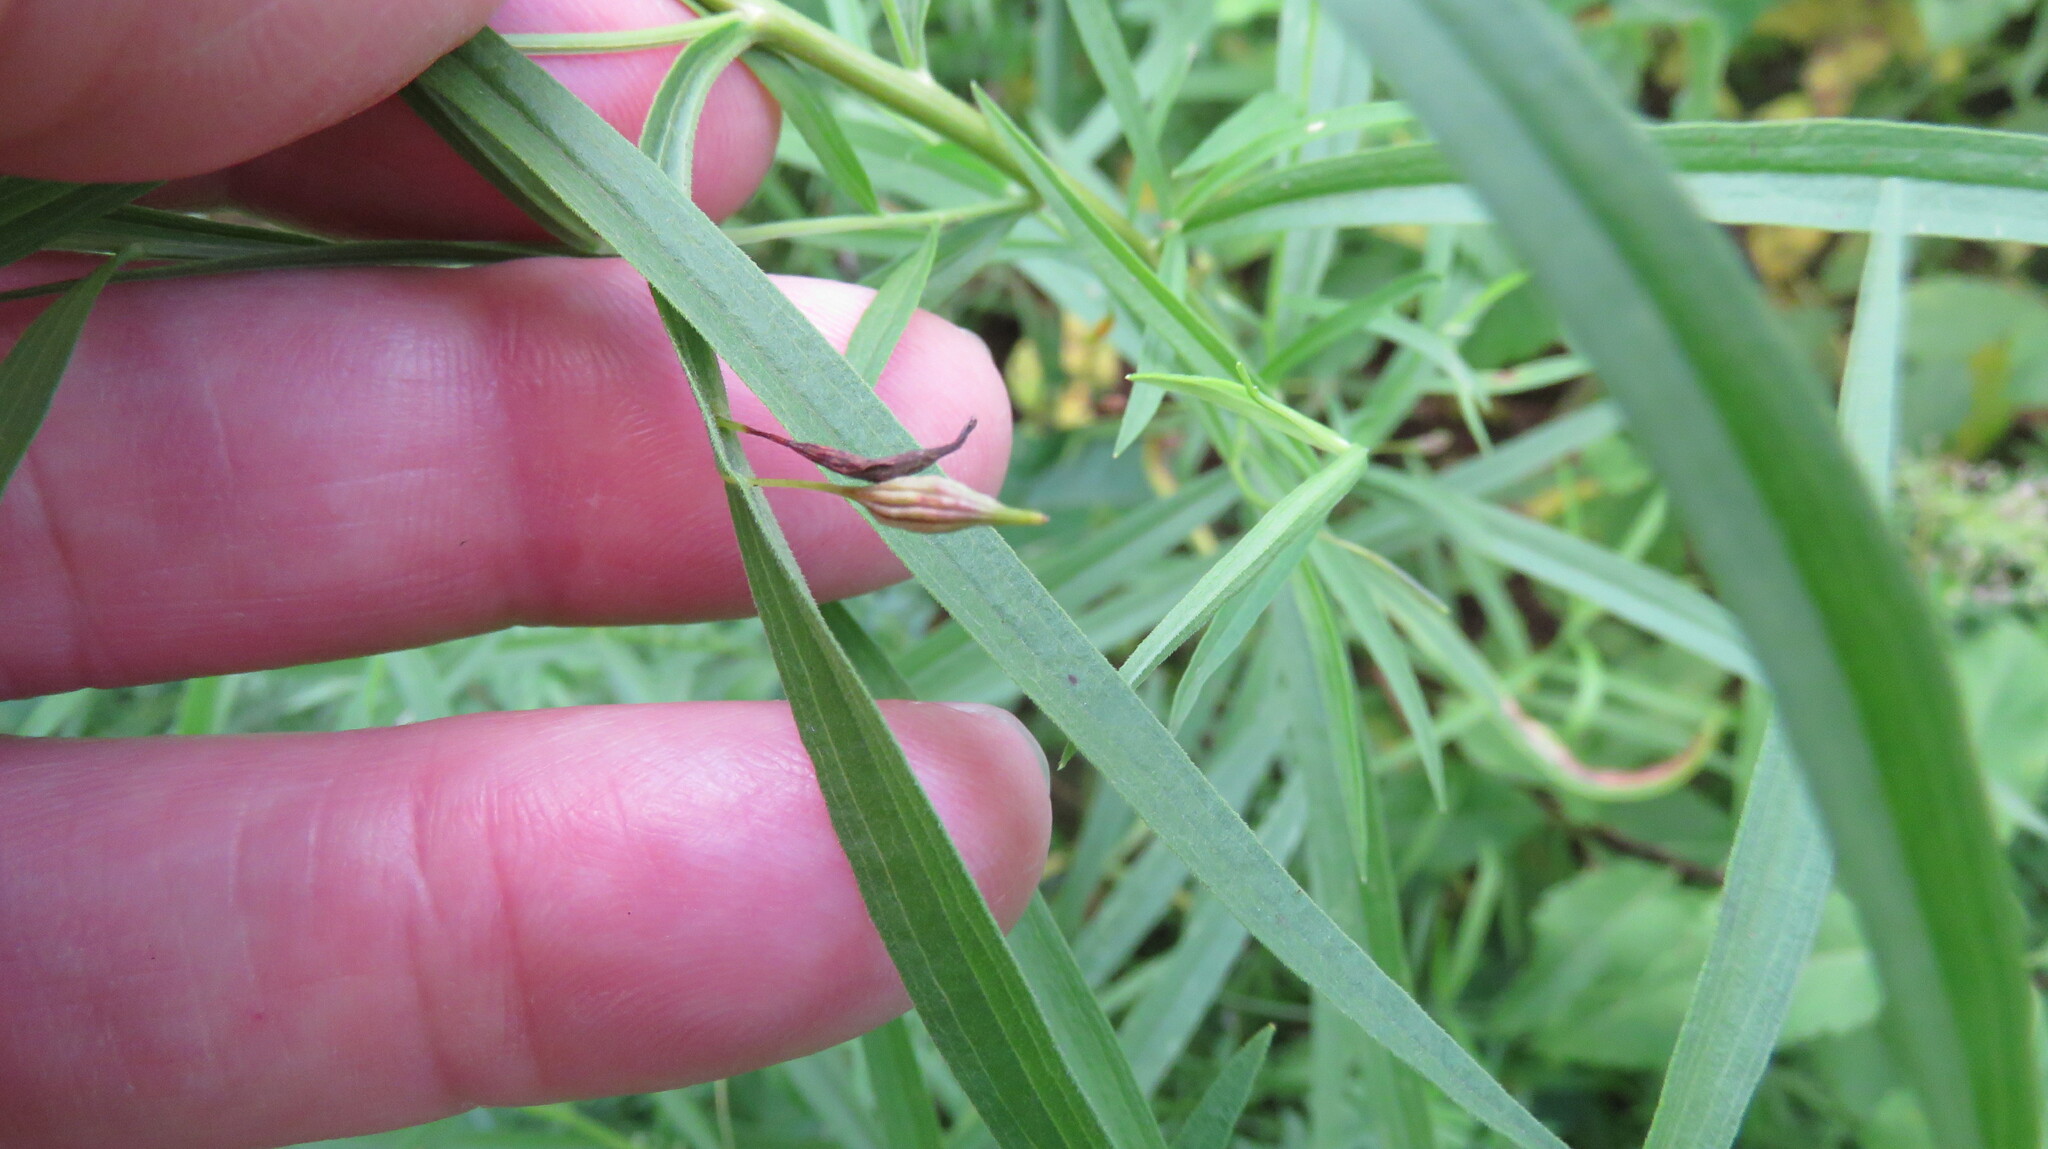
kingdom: Animalia
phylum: Arthropoda
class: Insecta
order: Diptera
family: Cecidomyiidae
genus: Rhopalomyia
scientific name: Rhopalomyia pedicellata
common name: Goldentop pedicellate gall midge
